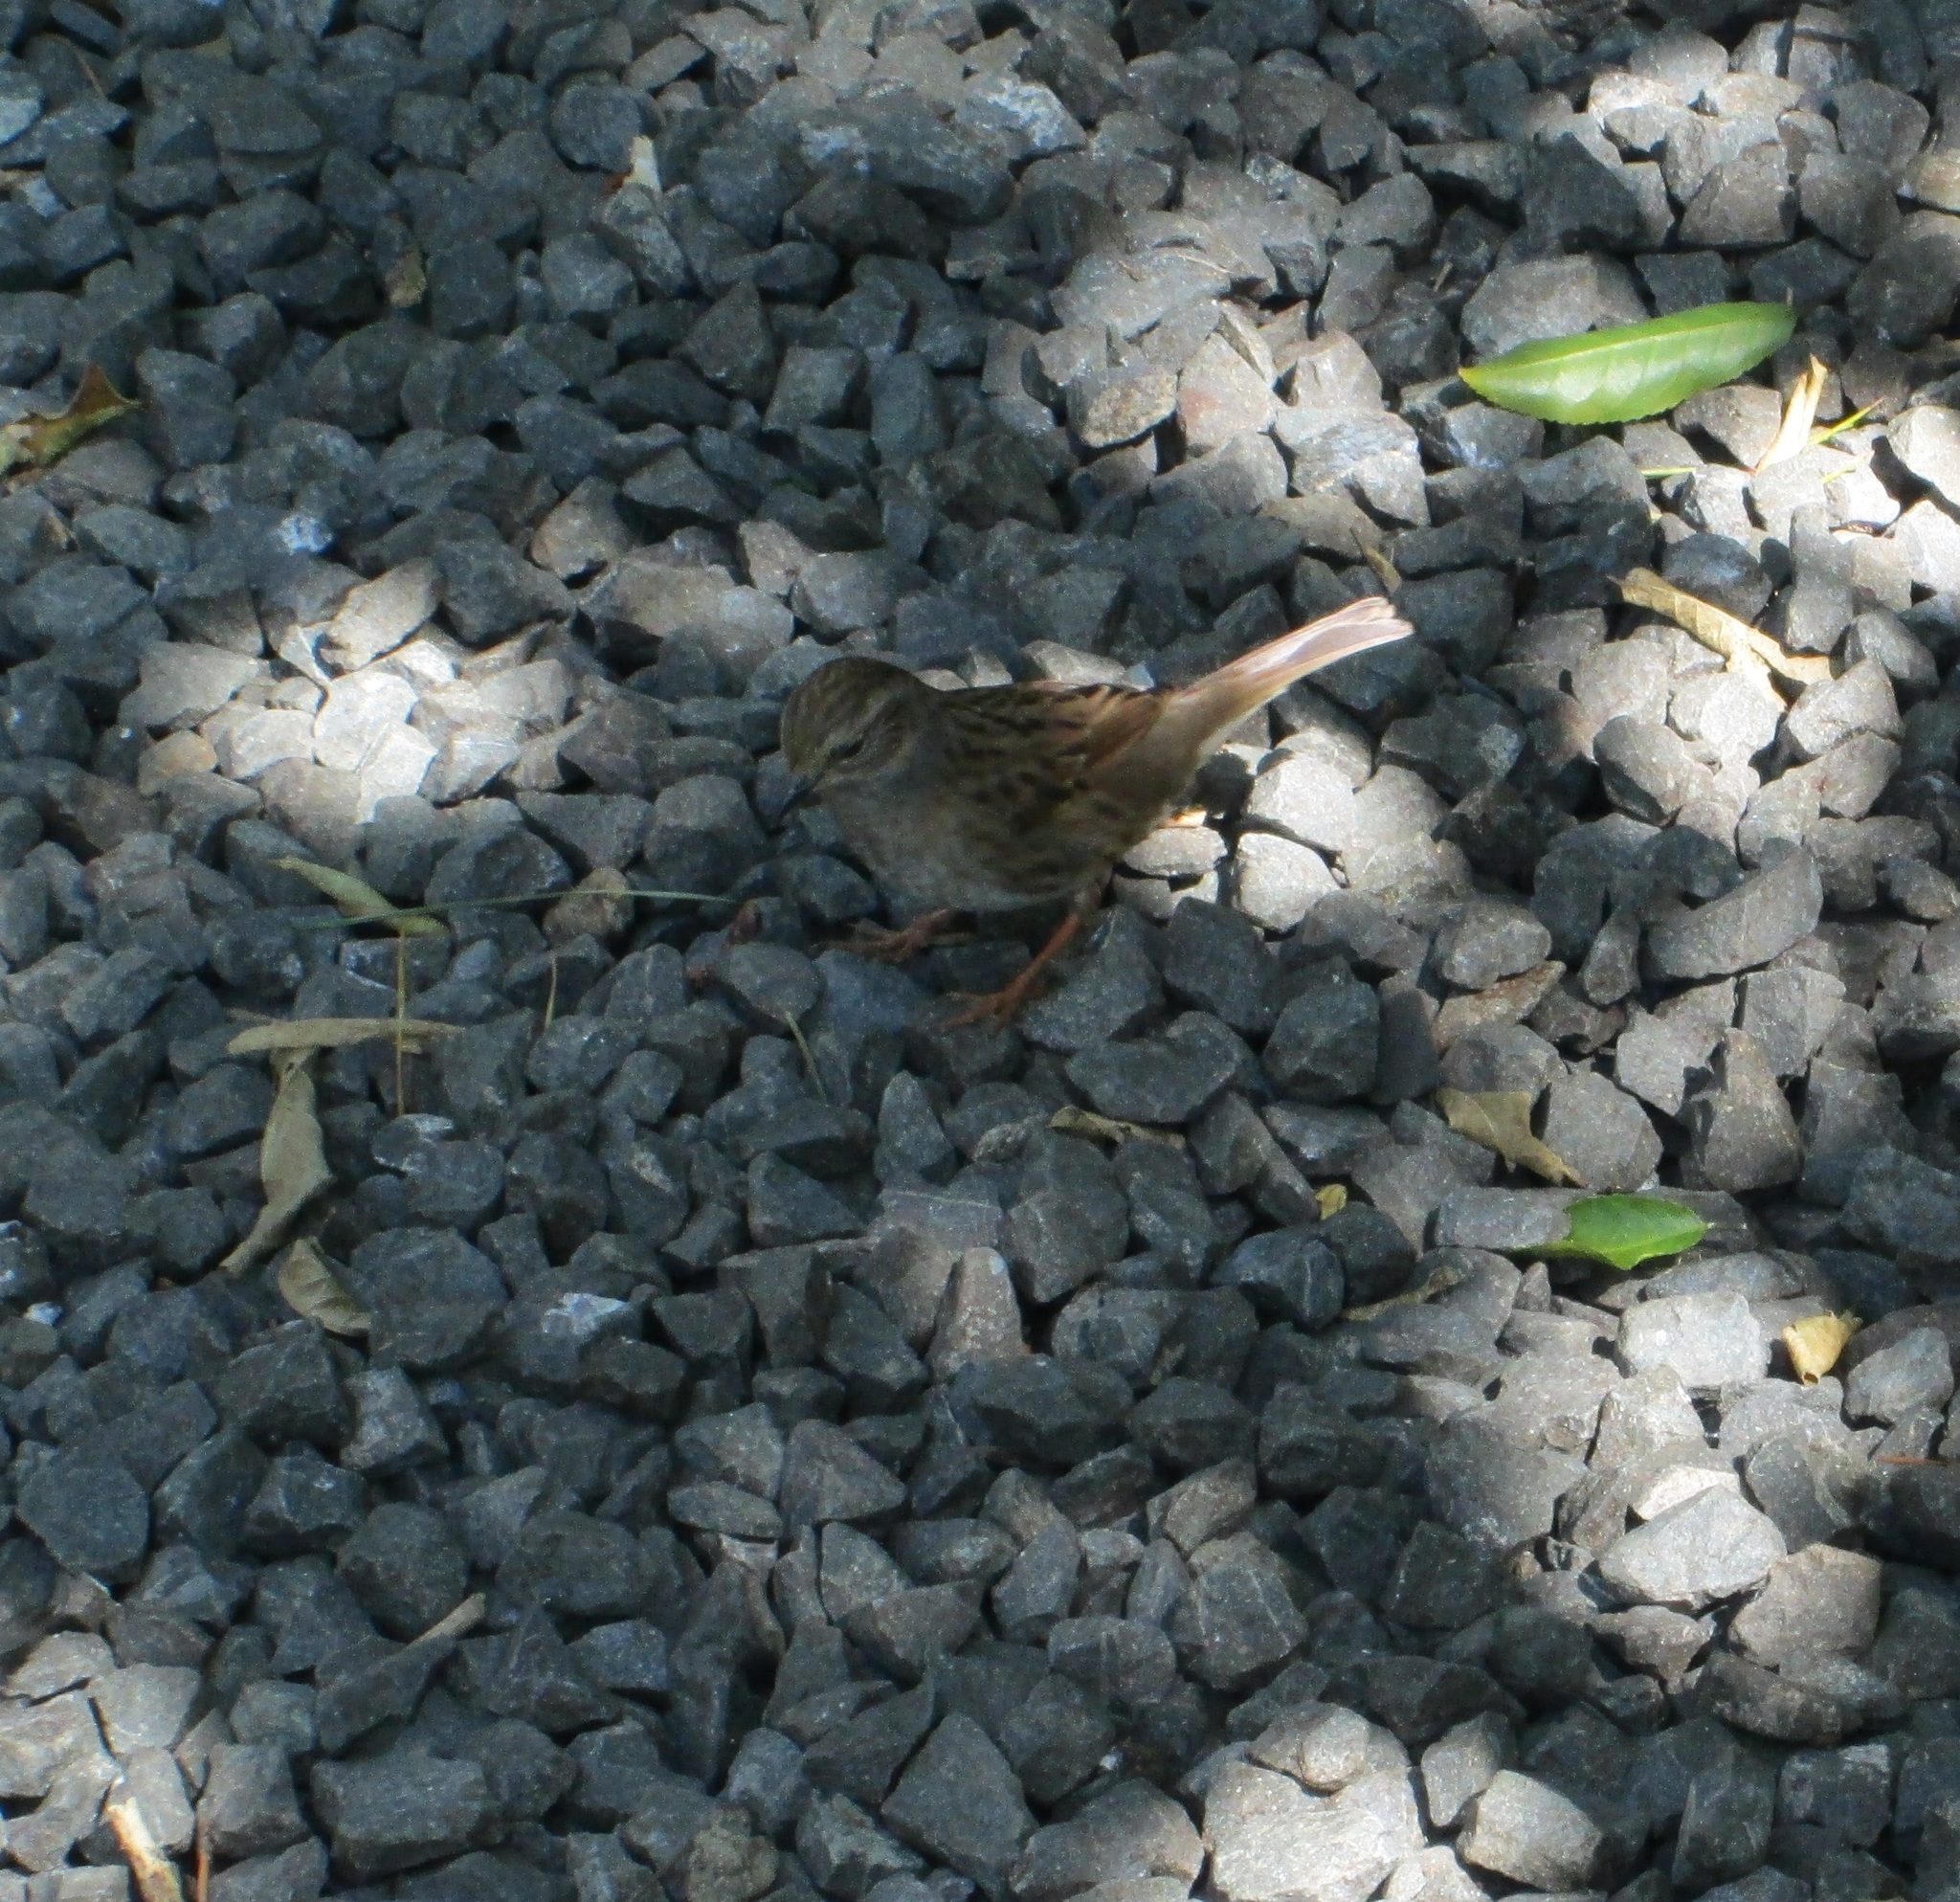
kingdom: Animalia
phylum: Chordata
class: Aves
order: Passeriformes
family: Prunellidae
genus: Prunella
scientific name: Prunella modularis
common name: Dunnock
